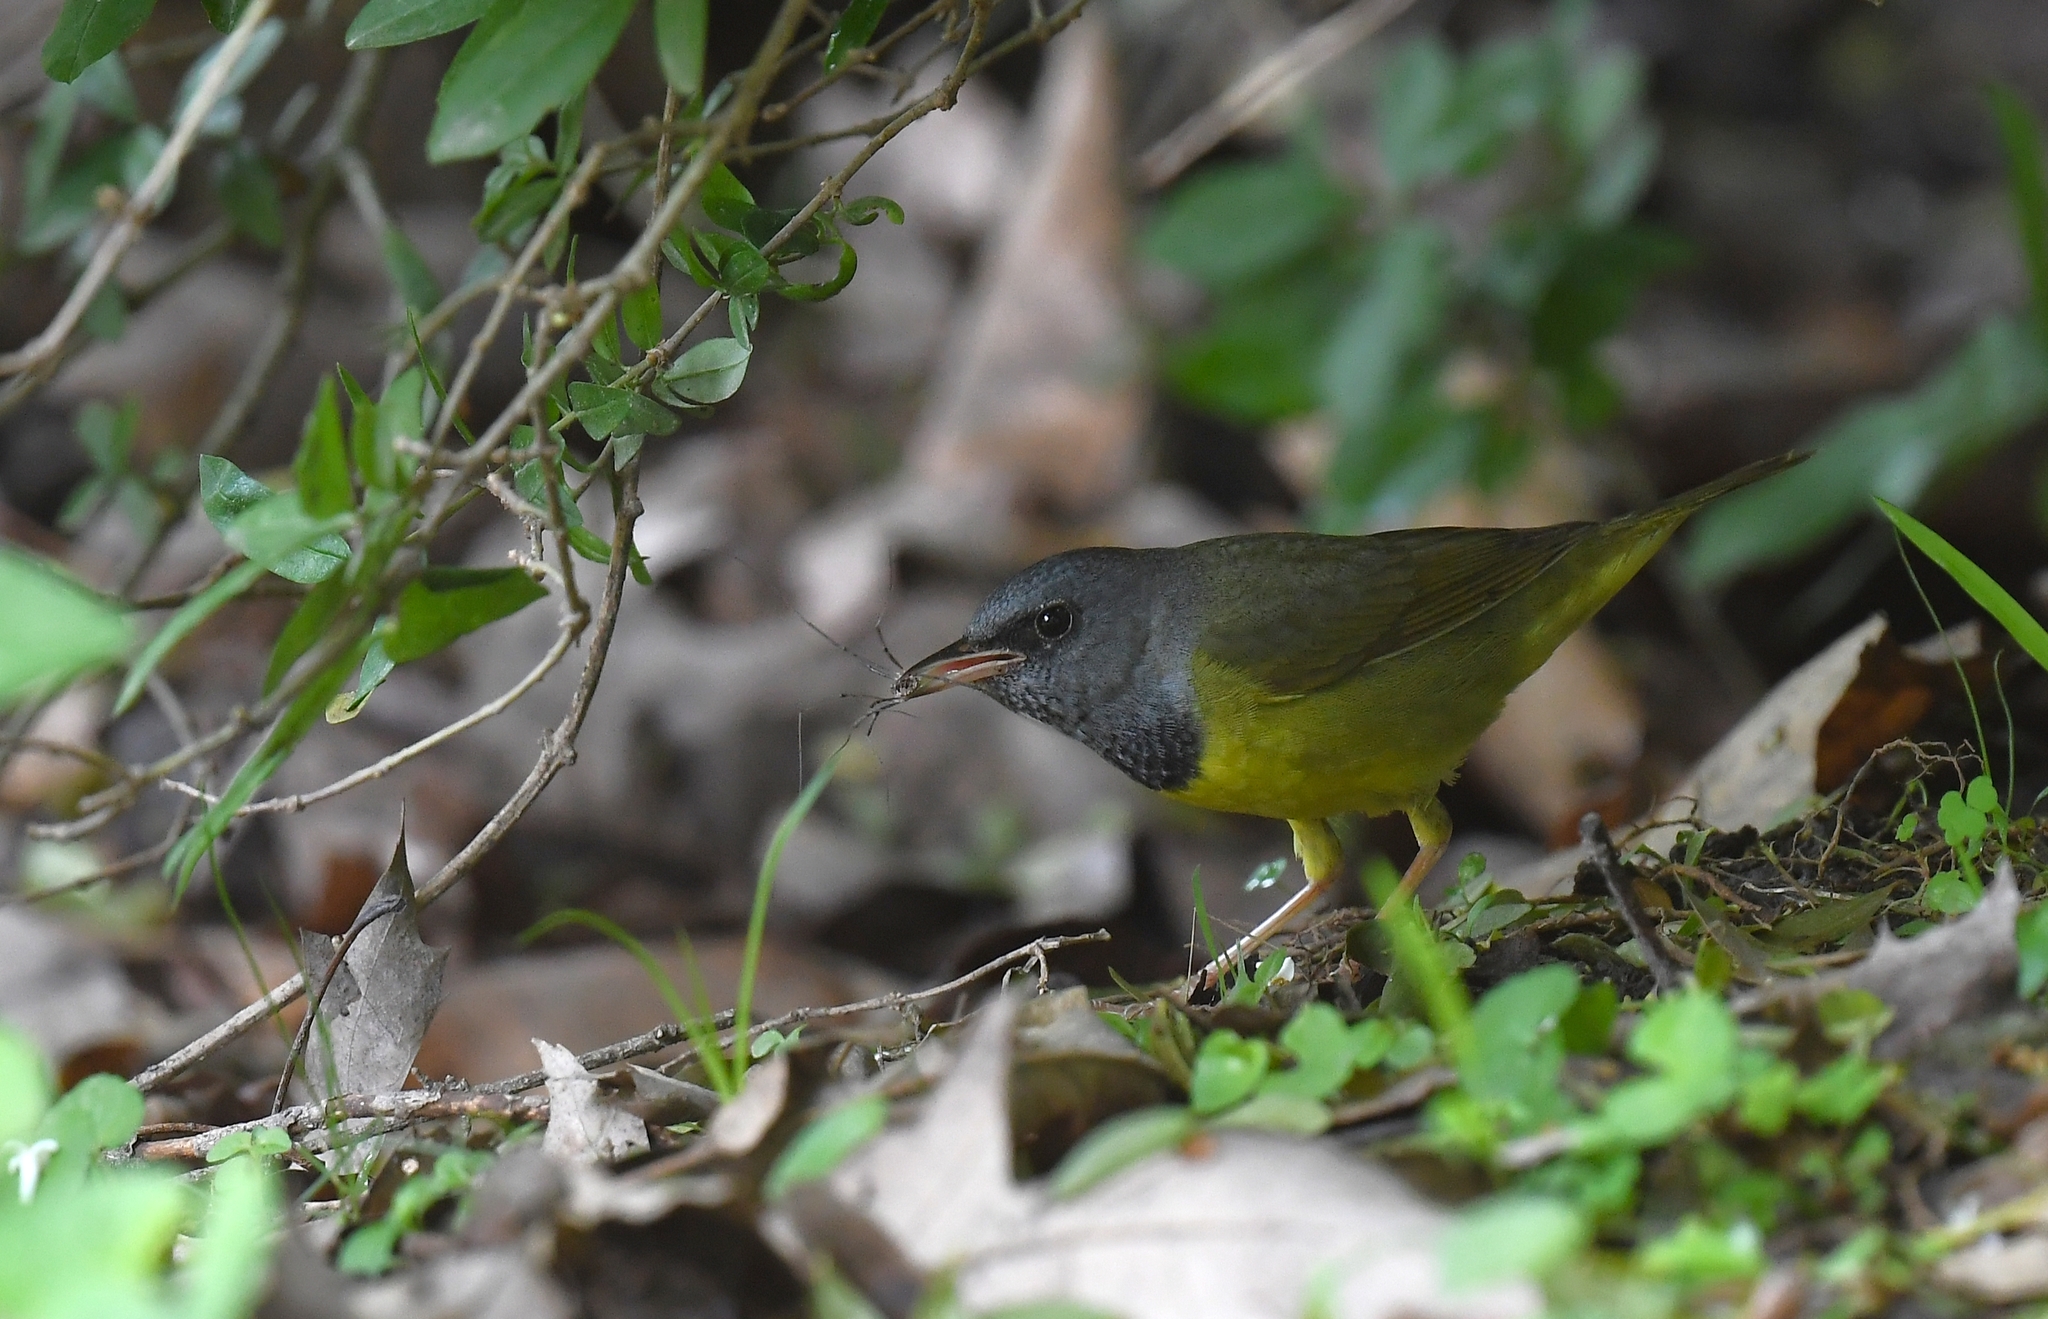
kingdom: Animalia
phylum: Chordata
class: Aves
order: Passeriformes
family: Parulidae
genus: Geothlypis
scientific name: Geothlypis philadelphia
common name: Mourning warbler
